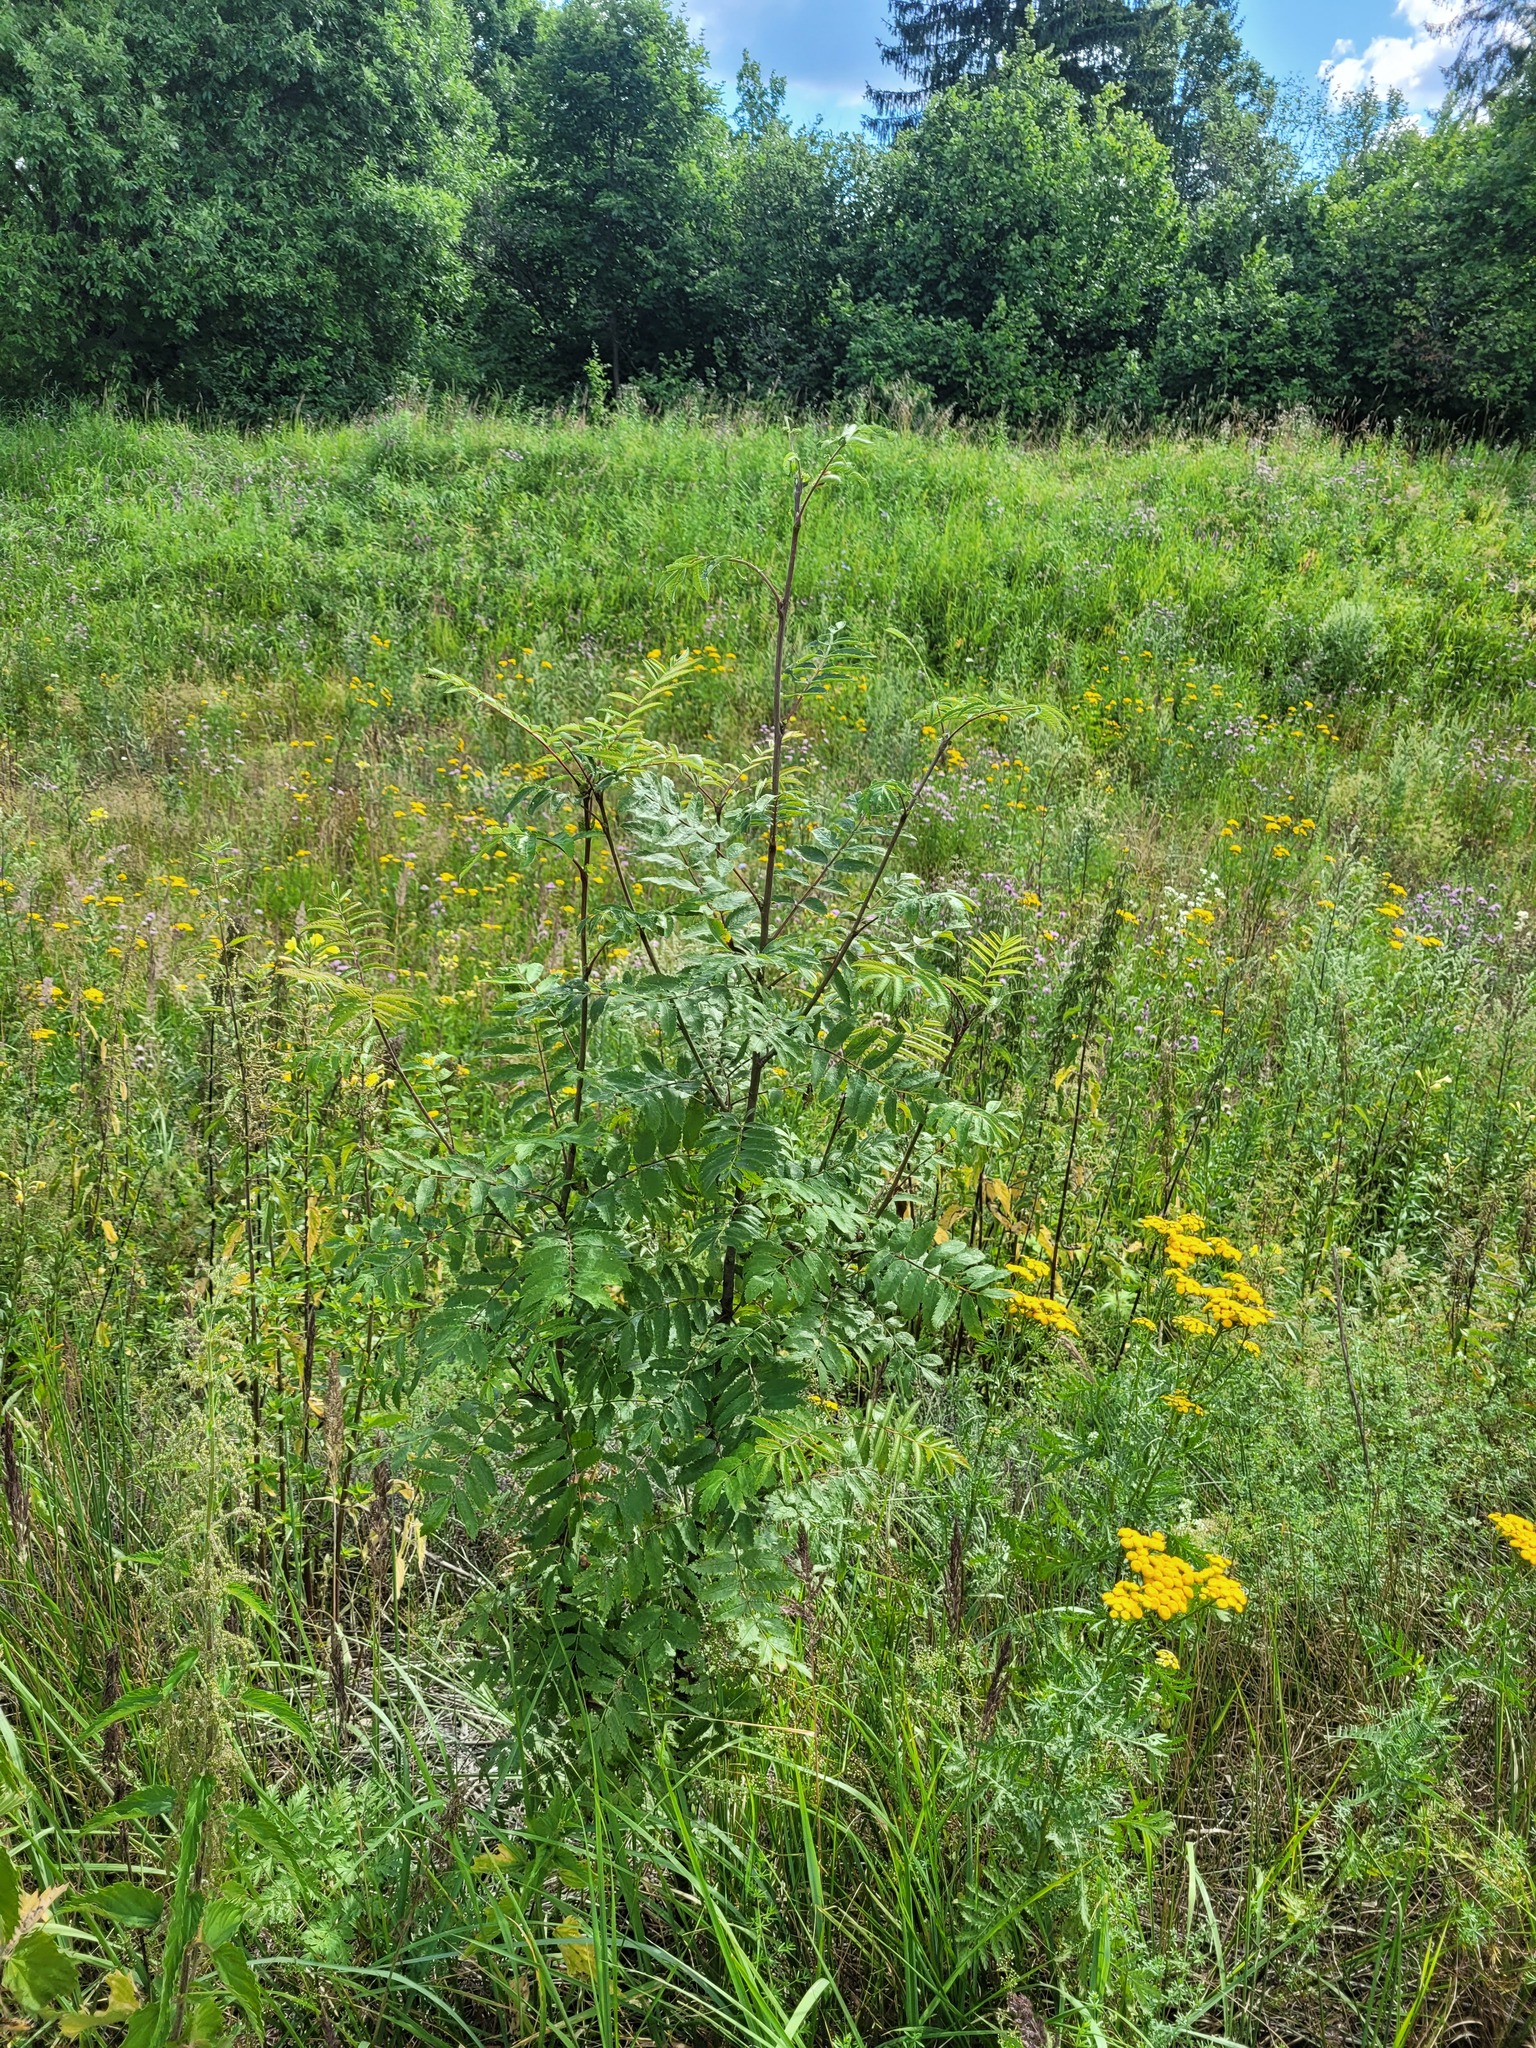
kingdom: Plantae
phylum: Tracheophyta
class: Magnoliopsida
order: Rosales
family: Rosaceae
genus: Sorbus
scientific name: Sorbus aucuparia
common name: Rowan
